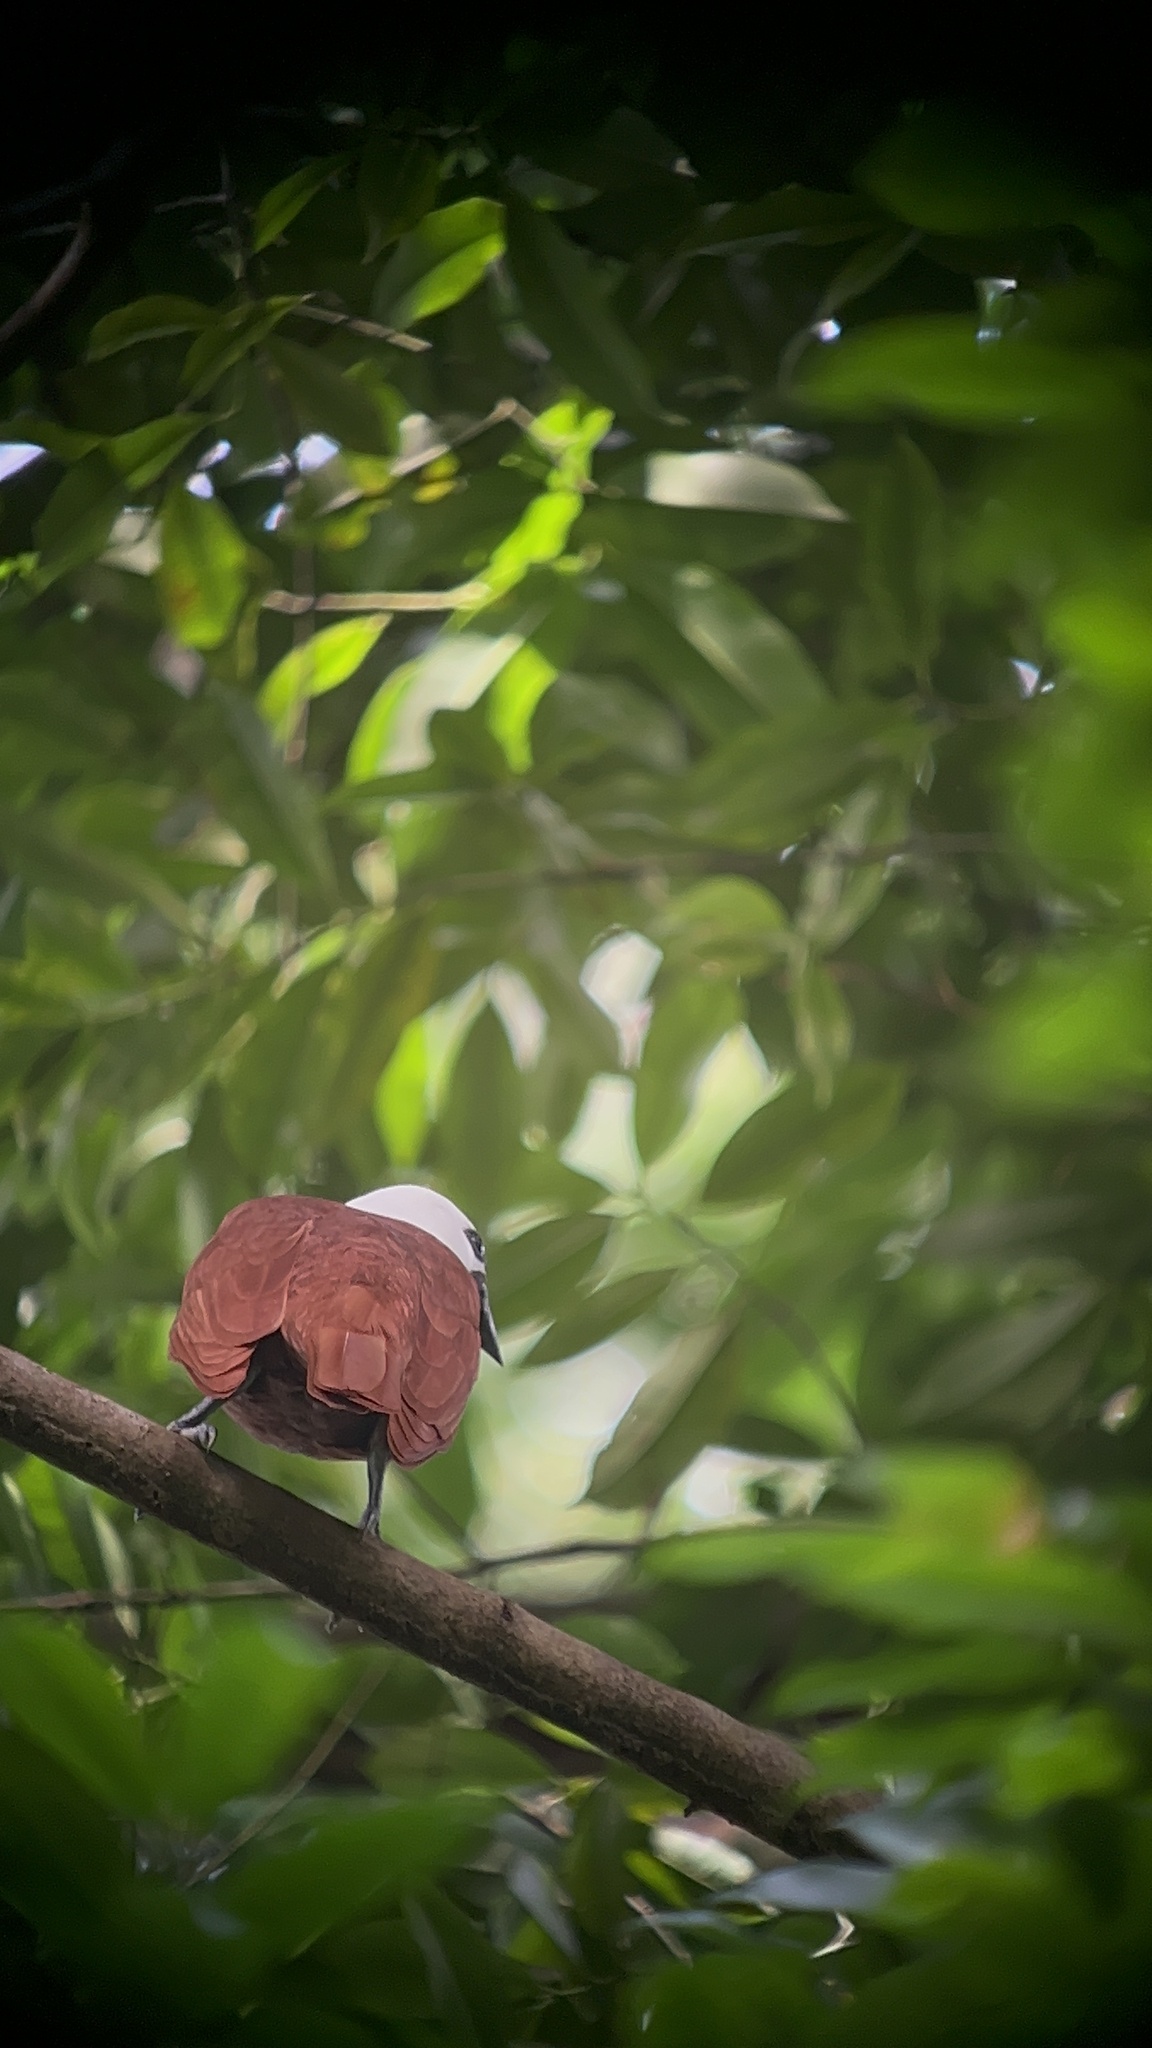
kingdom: Animalia
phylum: Chordata
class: Aves
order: Passeriformes
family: Cotingidae
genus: Procnias
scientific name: Procnias tricarunculatus
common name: Three-wattled bellbird
